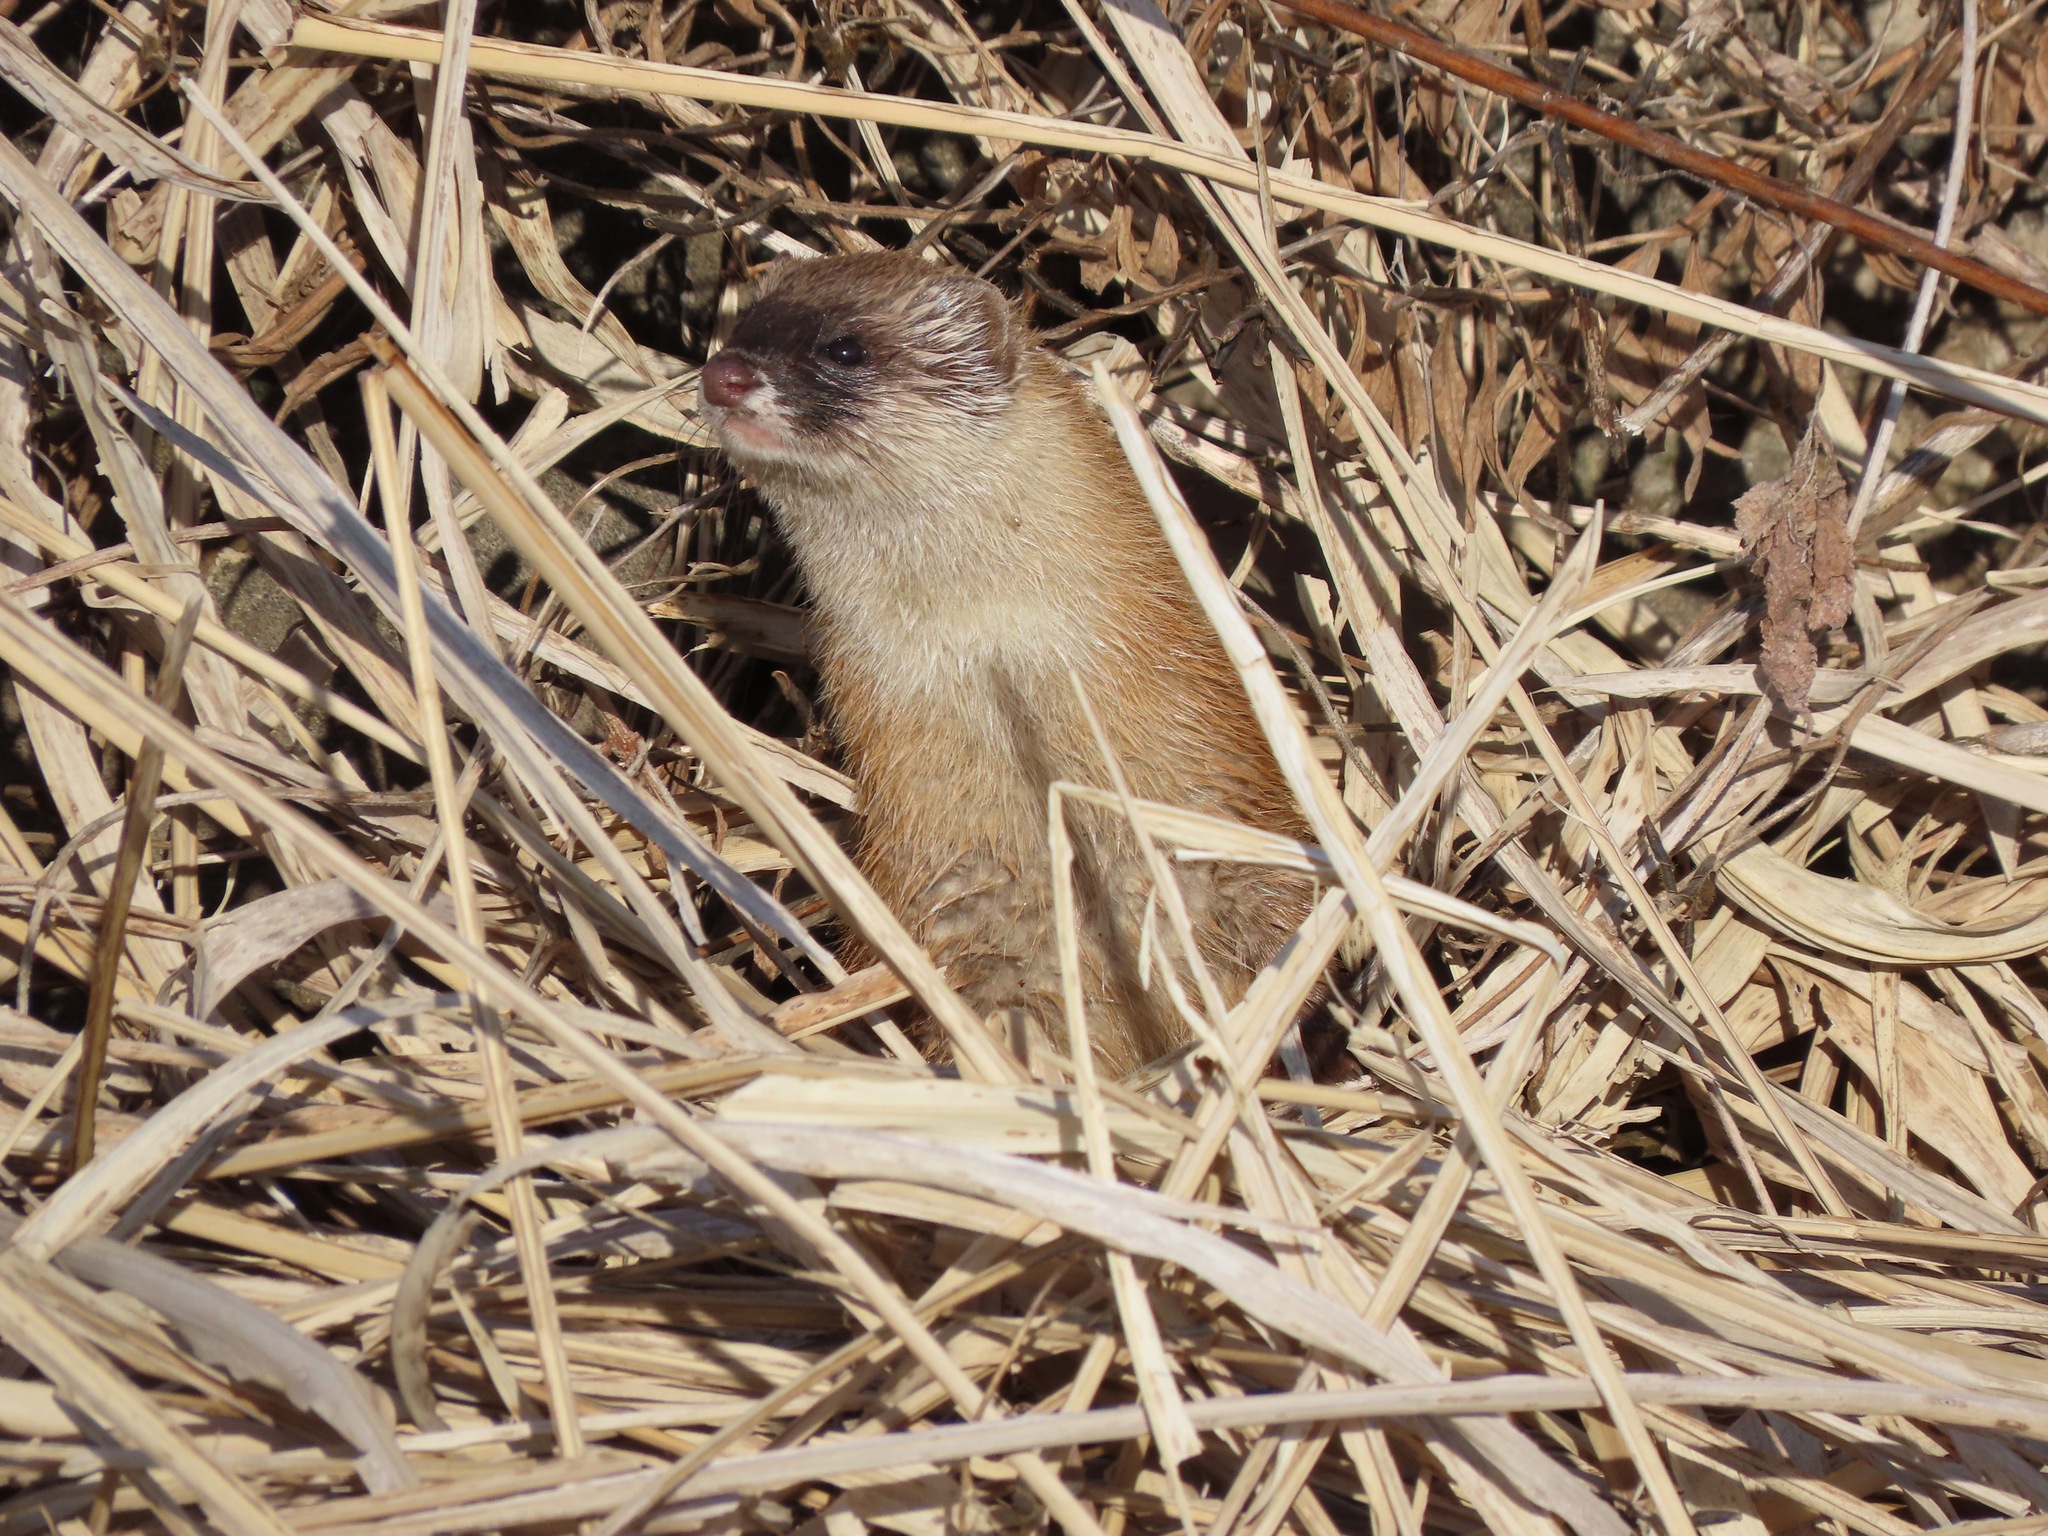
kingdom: Animalia
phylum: Chordata
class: Mammalia
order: Carnivora
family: Mustelidae
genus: Mustela
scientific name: Mustela itatsi
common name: Japanese weasel
